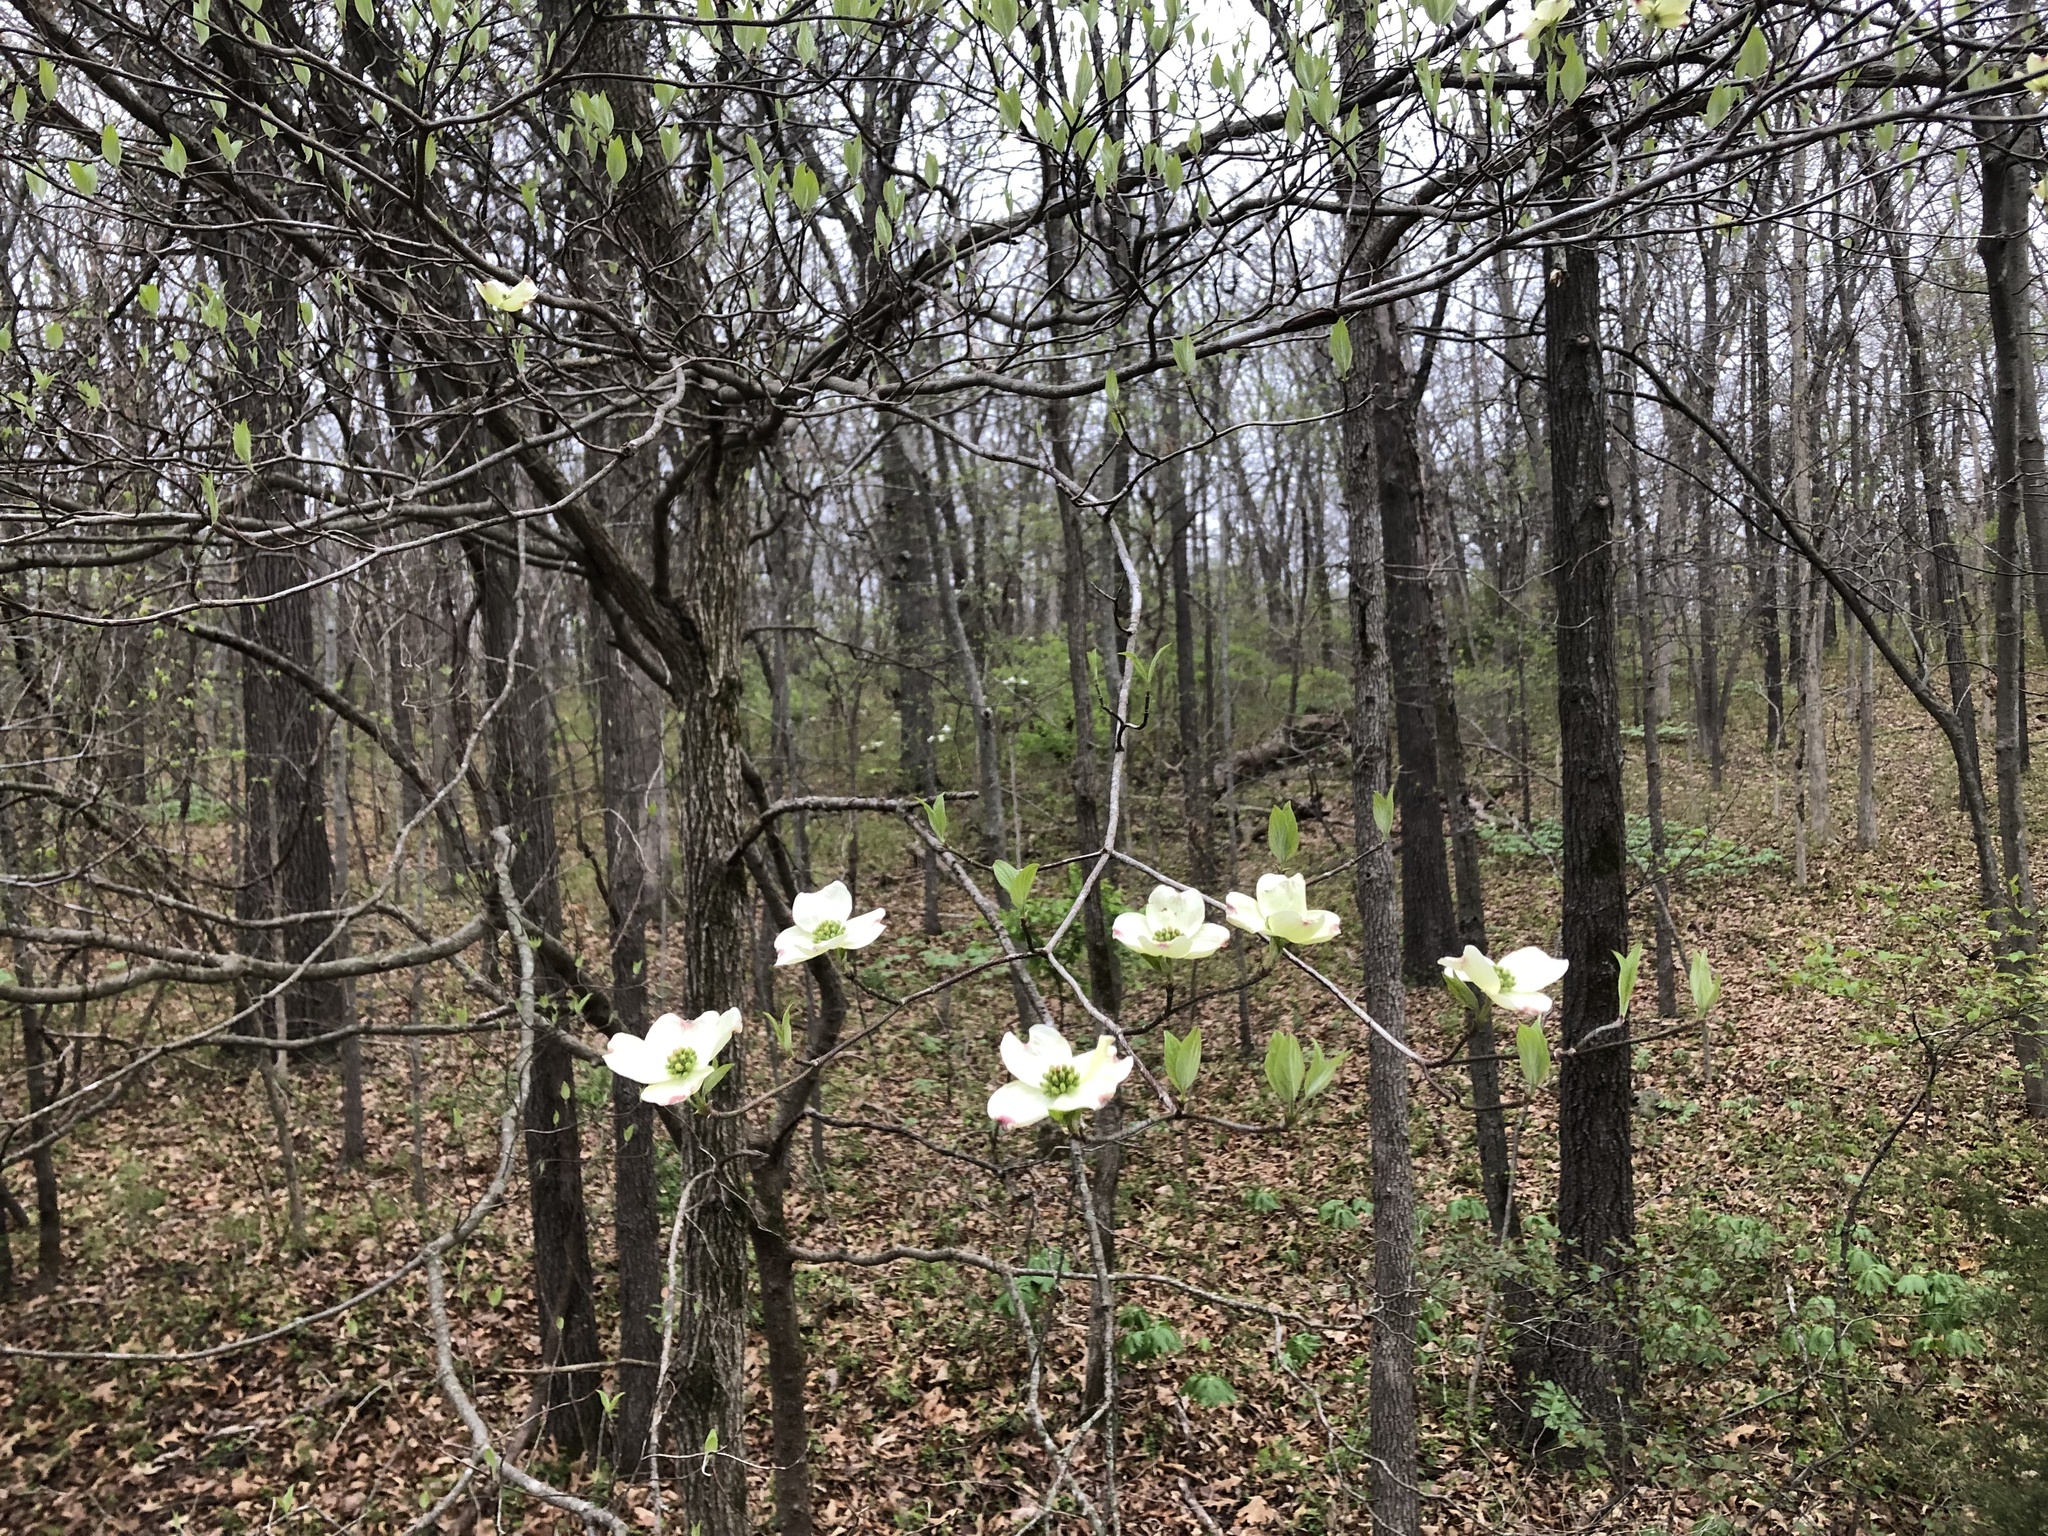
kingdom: Plantae
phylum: Tracheophyta
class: Magnoliopsida
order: Cornales
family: Cornaceae
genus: Cornus
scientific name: Cornus florida
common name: Flowering dogwood
